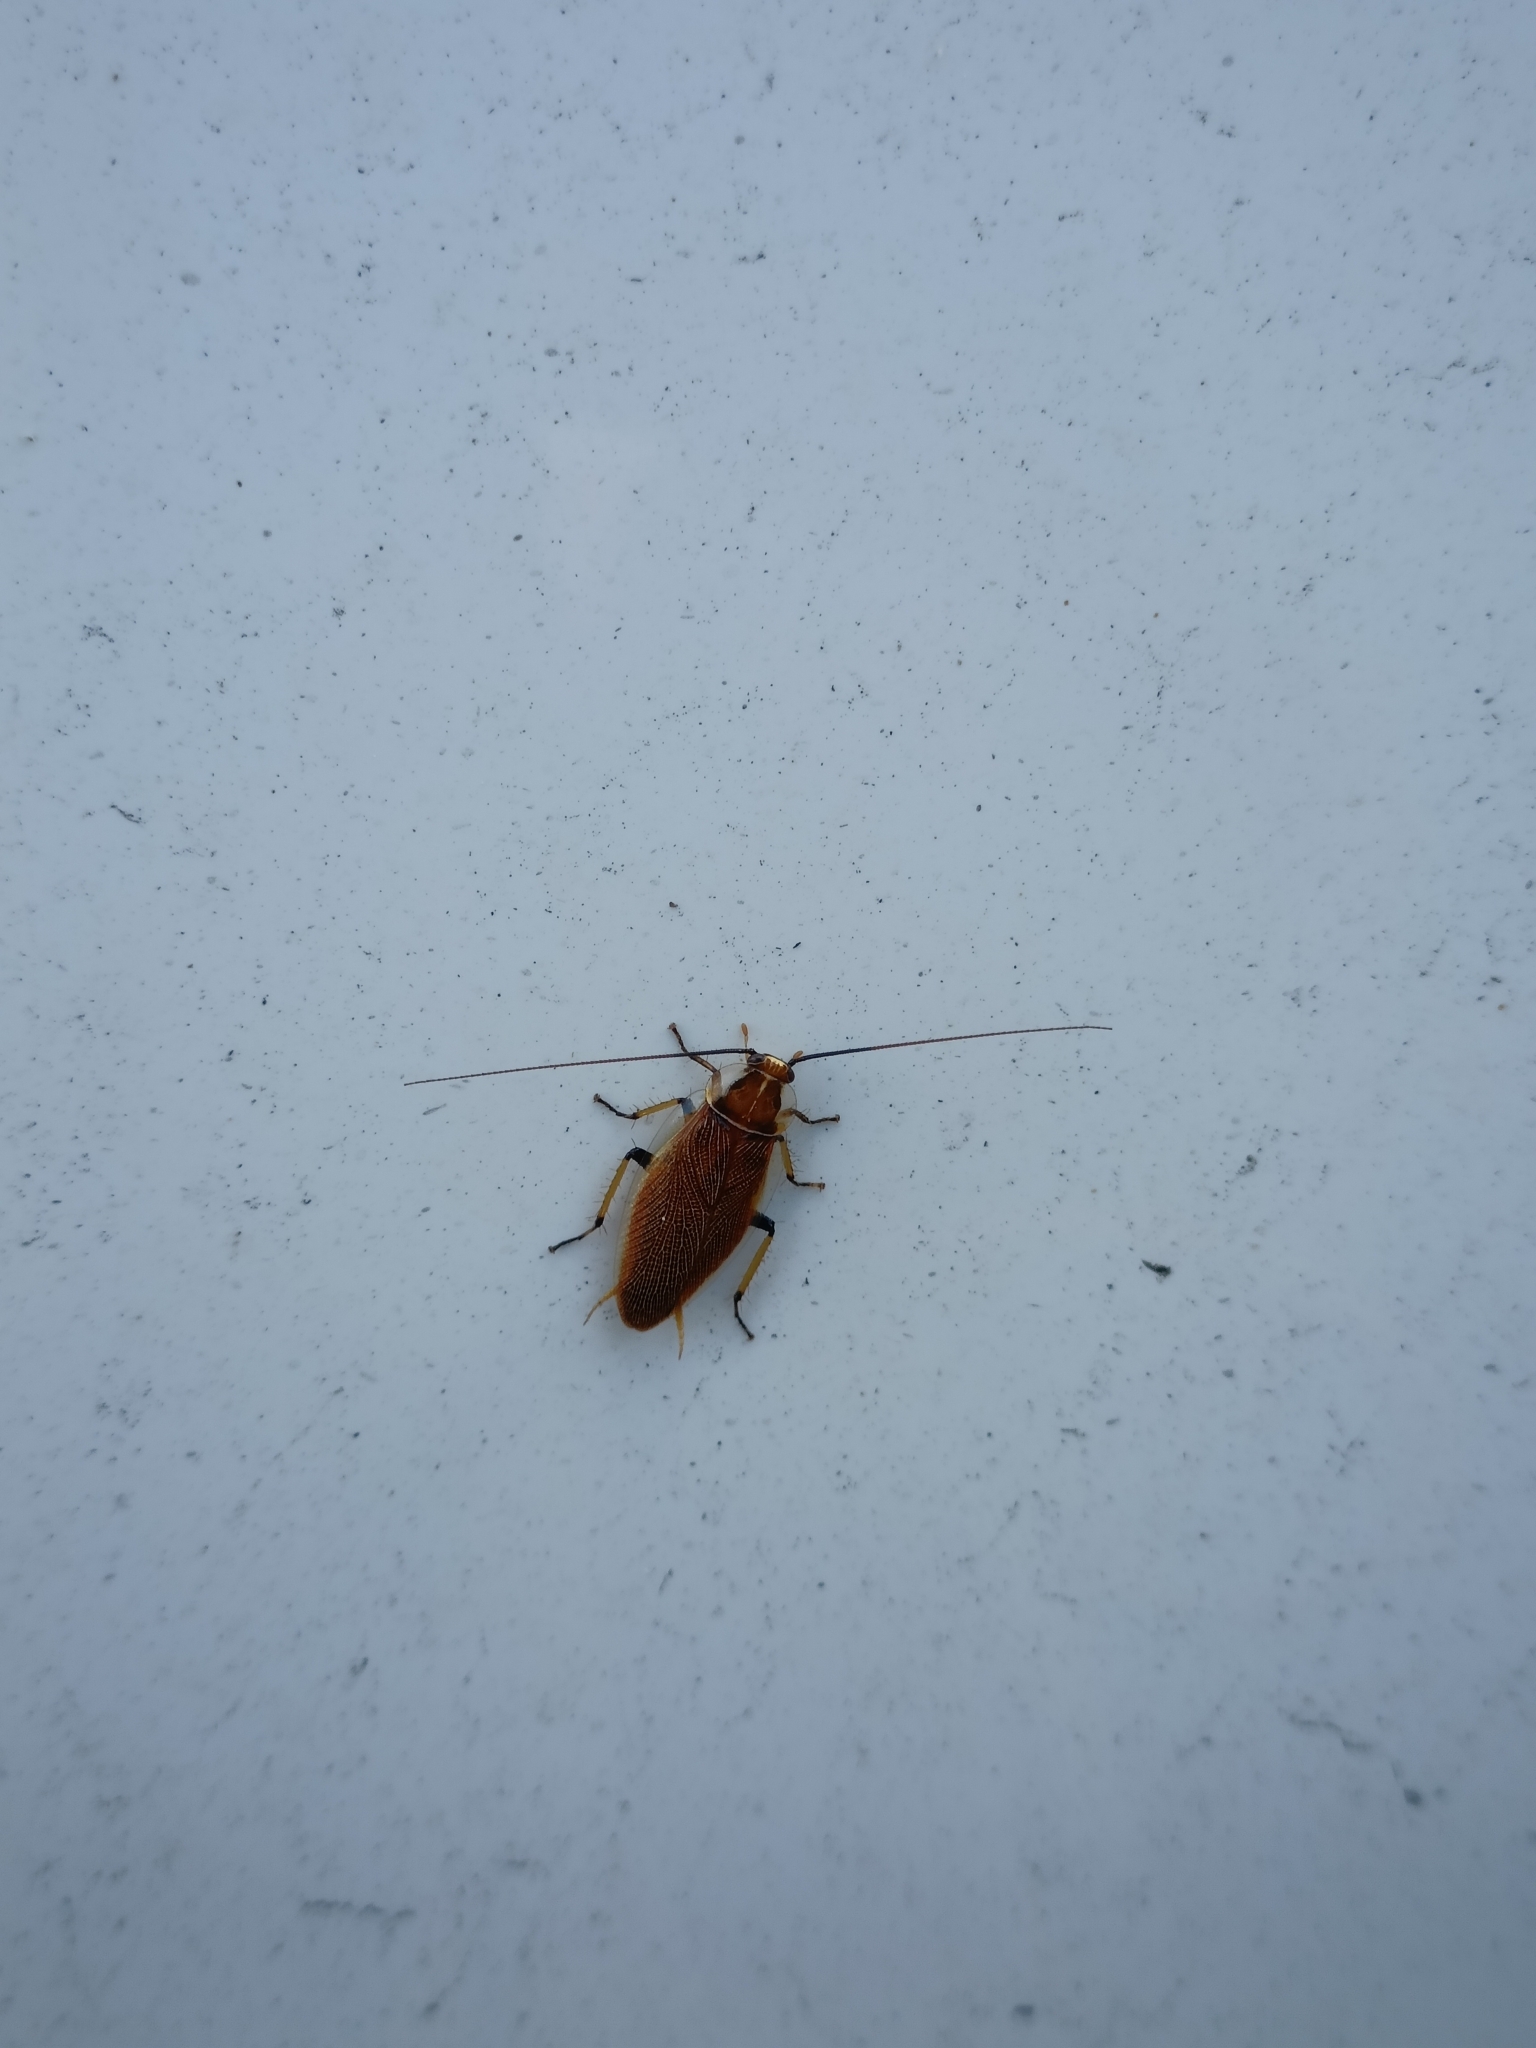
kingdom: Animalia
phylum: Arthropoda
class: Insecta
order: Blattodea
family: Ectobiidae
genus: Balta
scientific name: Balta bicolor
